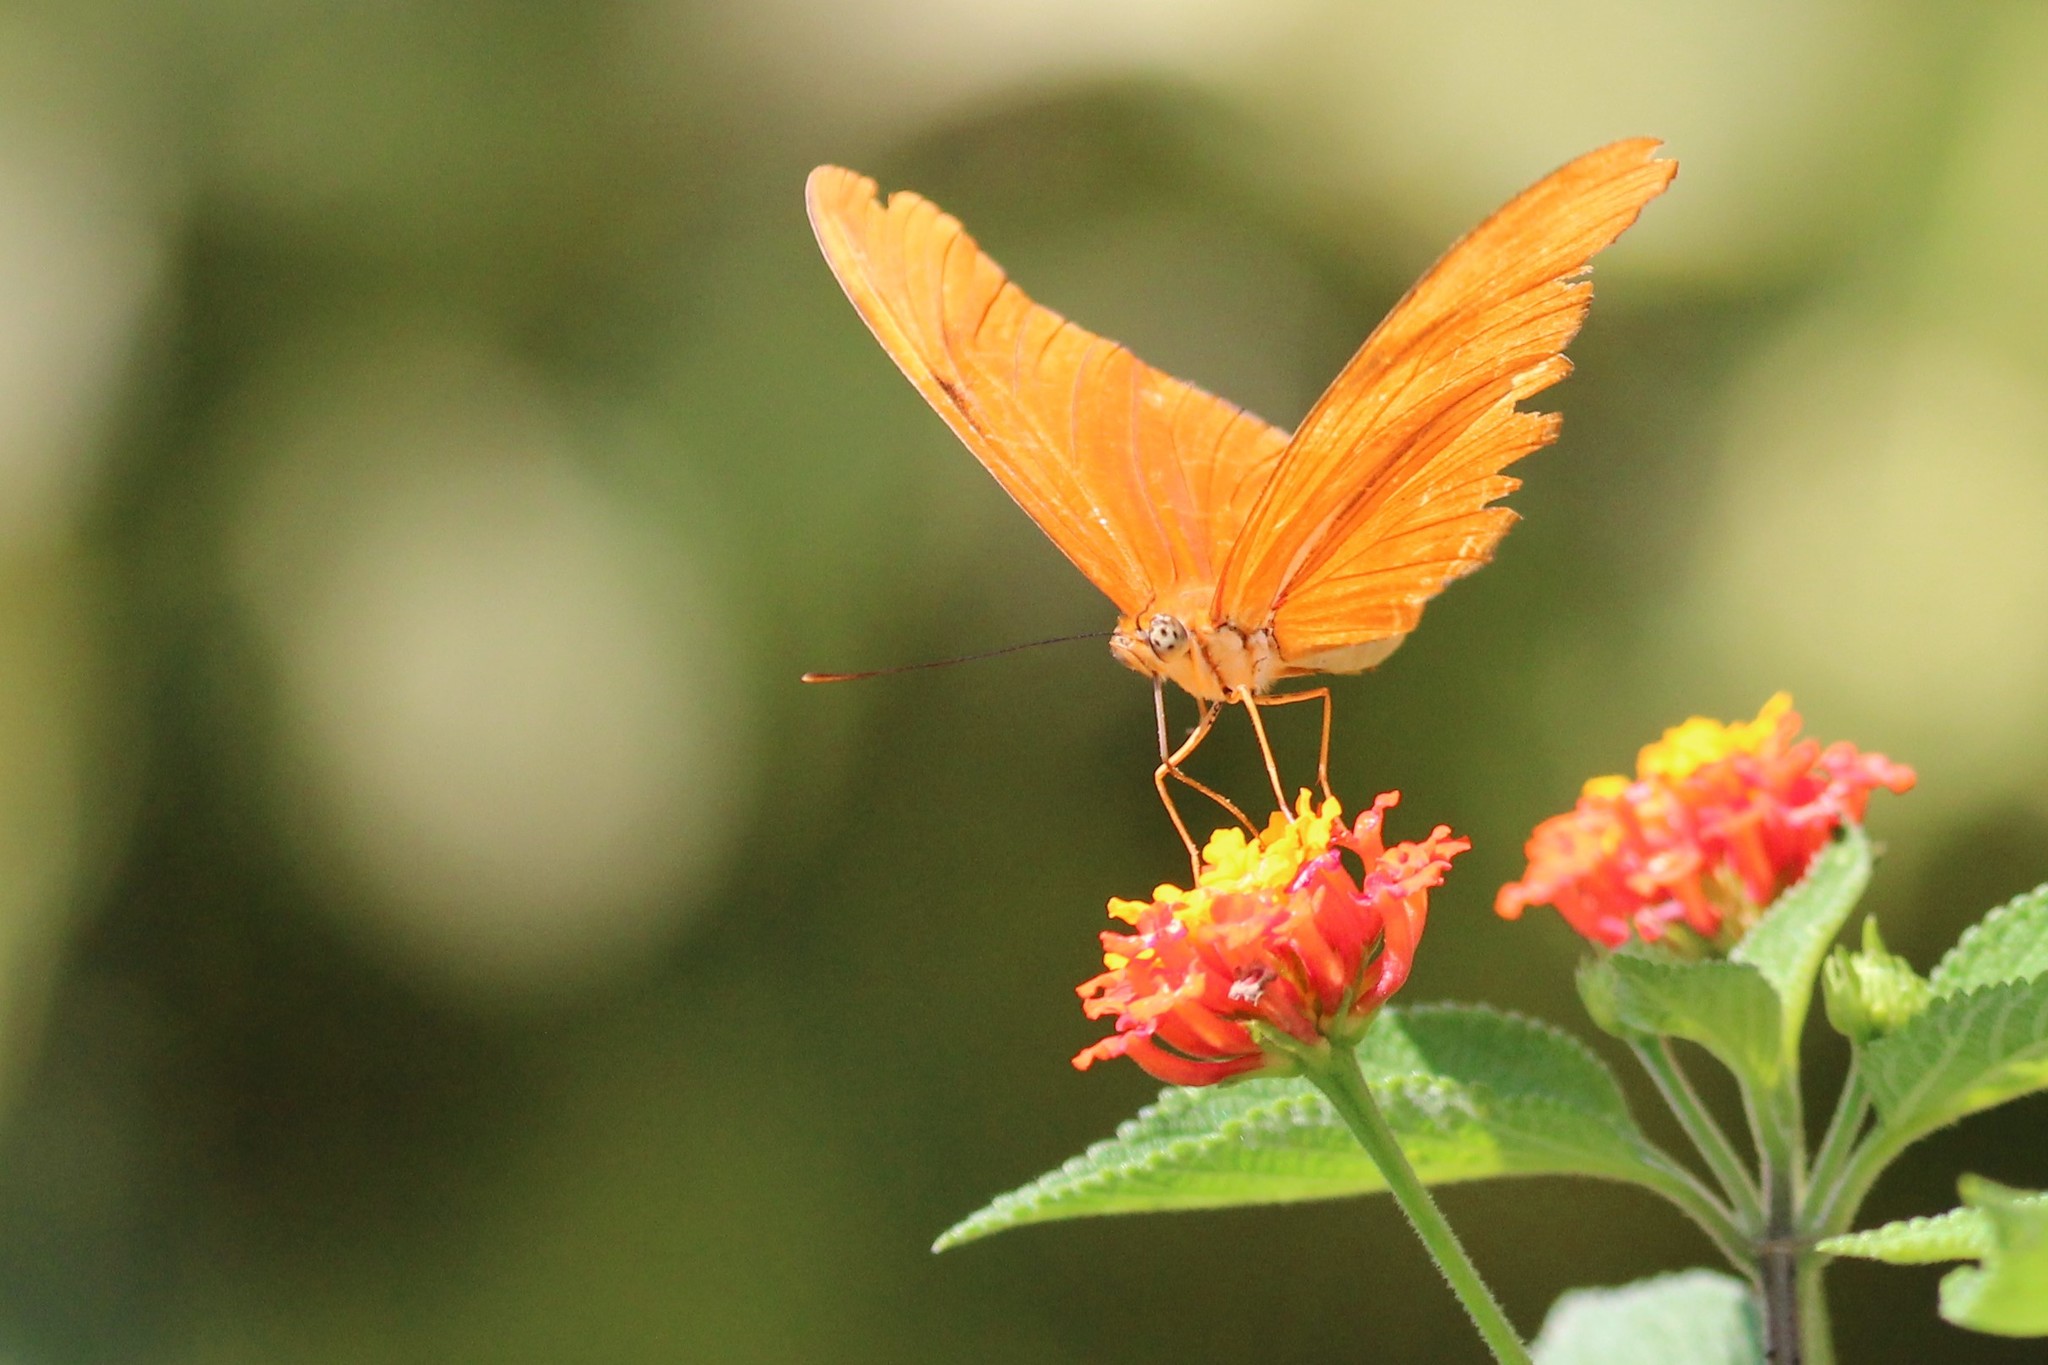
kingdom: Animalia
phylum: Arthropoda
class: Insecta
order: Lepidoptera
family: Nymphalidae
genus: Dryas
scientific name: Dryas iulia
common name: Flambeau
